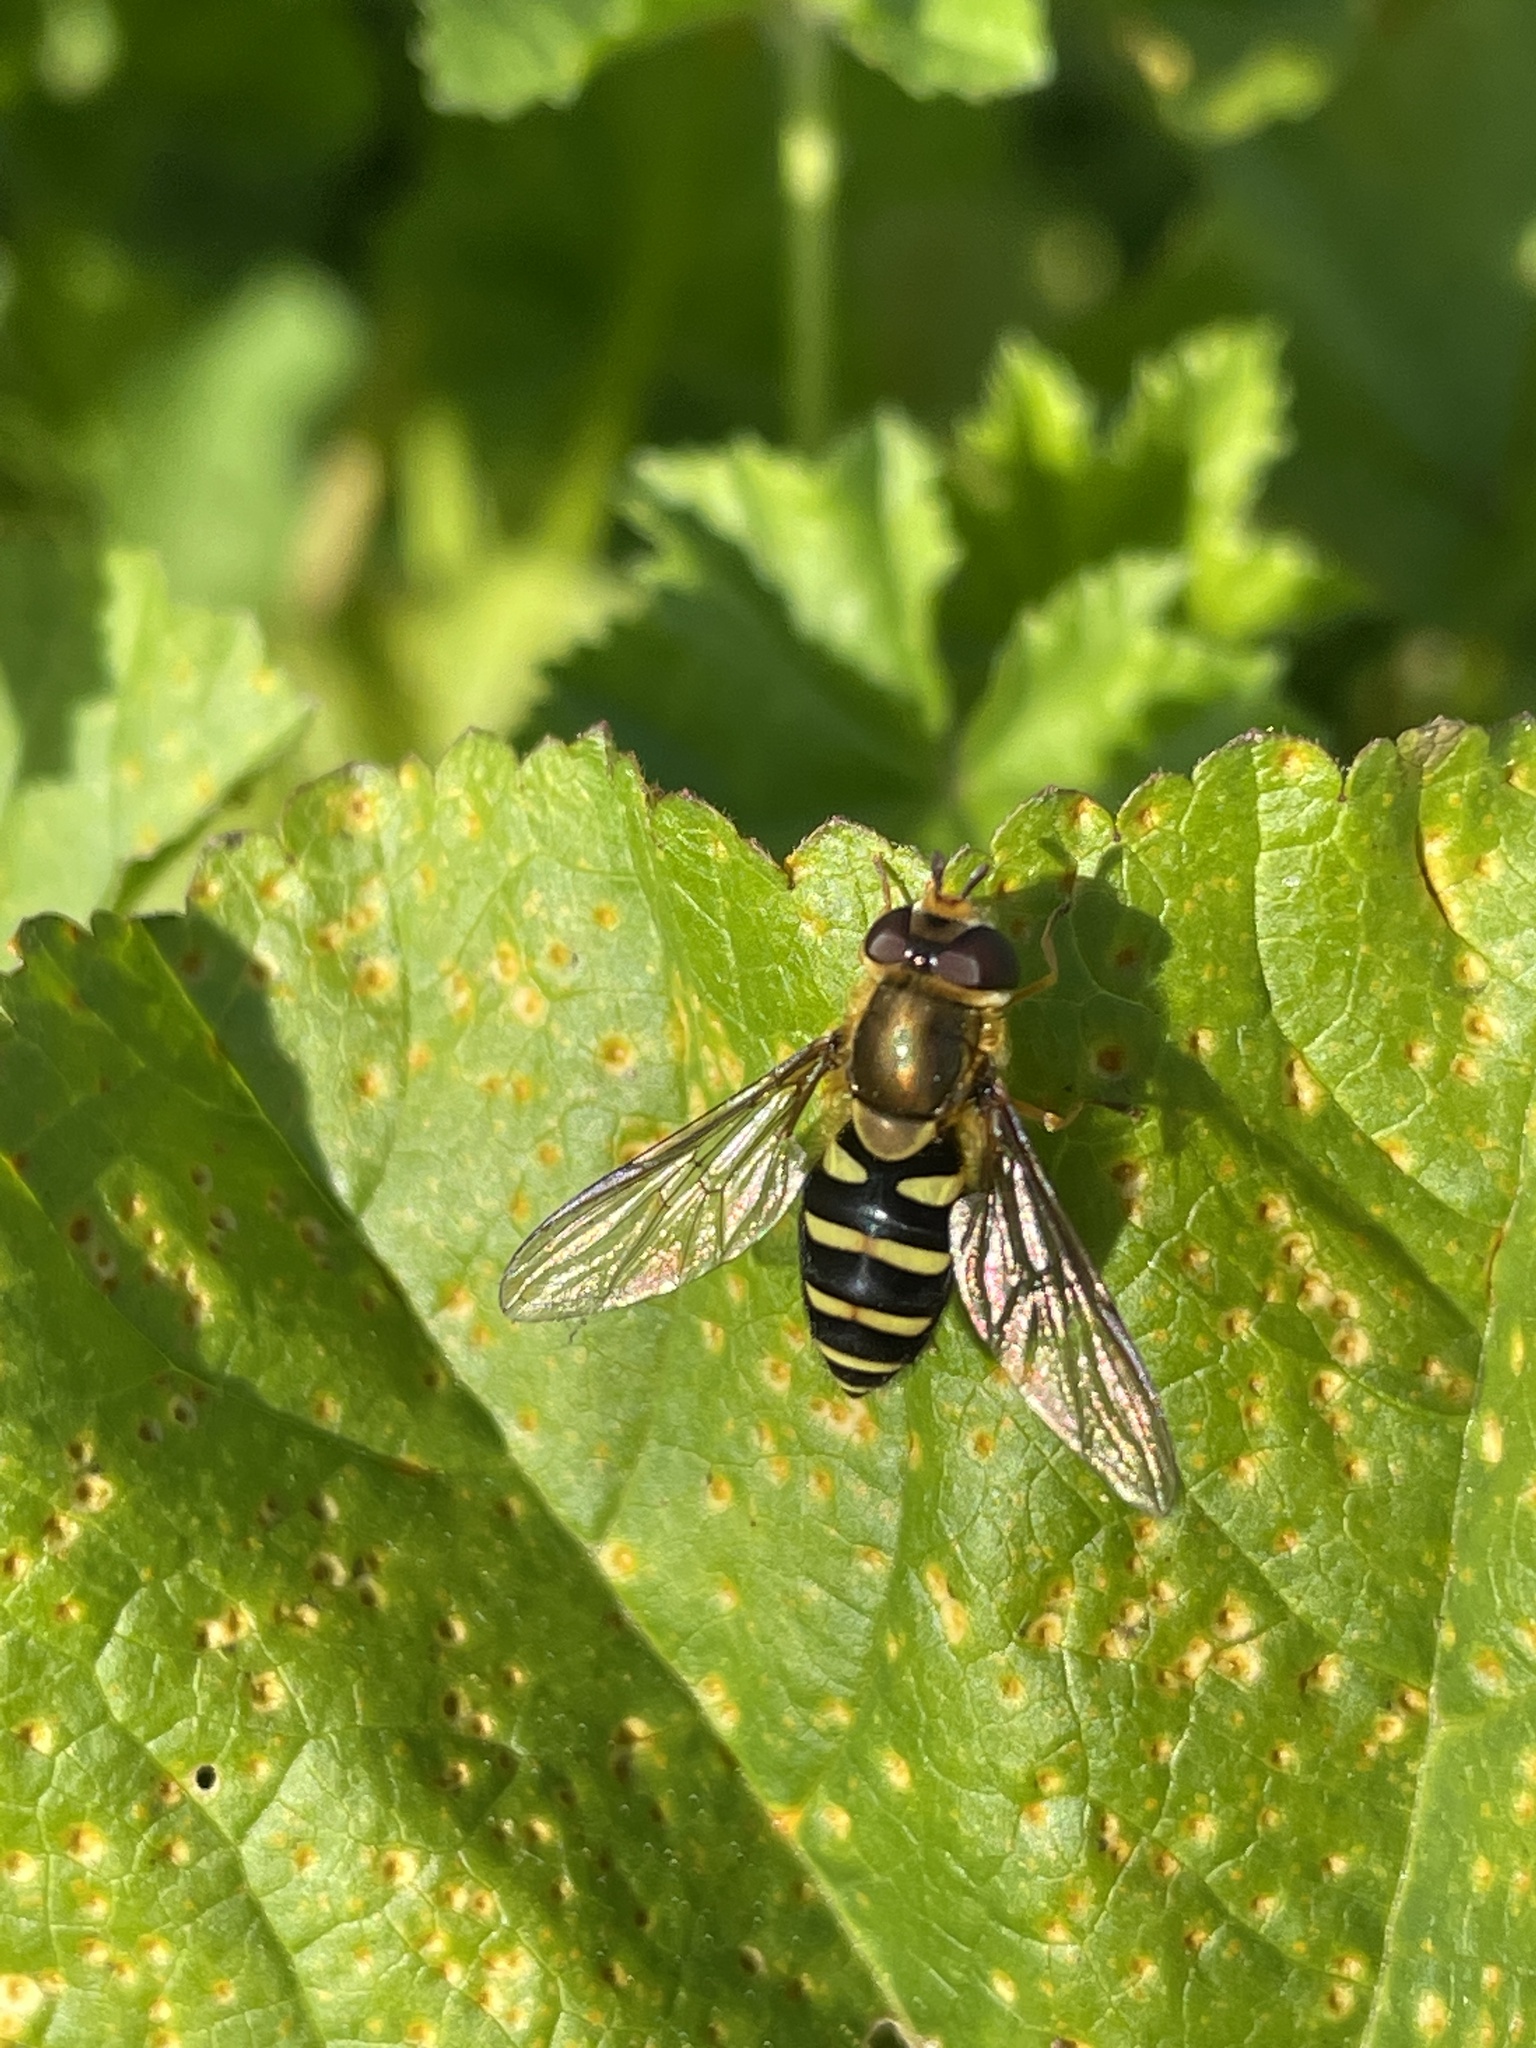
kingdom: Animalia
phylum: Arthropoda
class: Insecta
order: Diptera
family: Syrphidae
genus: Syrphus
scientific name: Syrphus opinator
